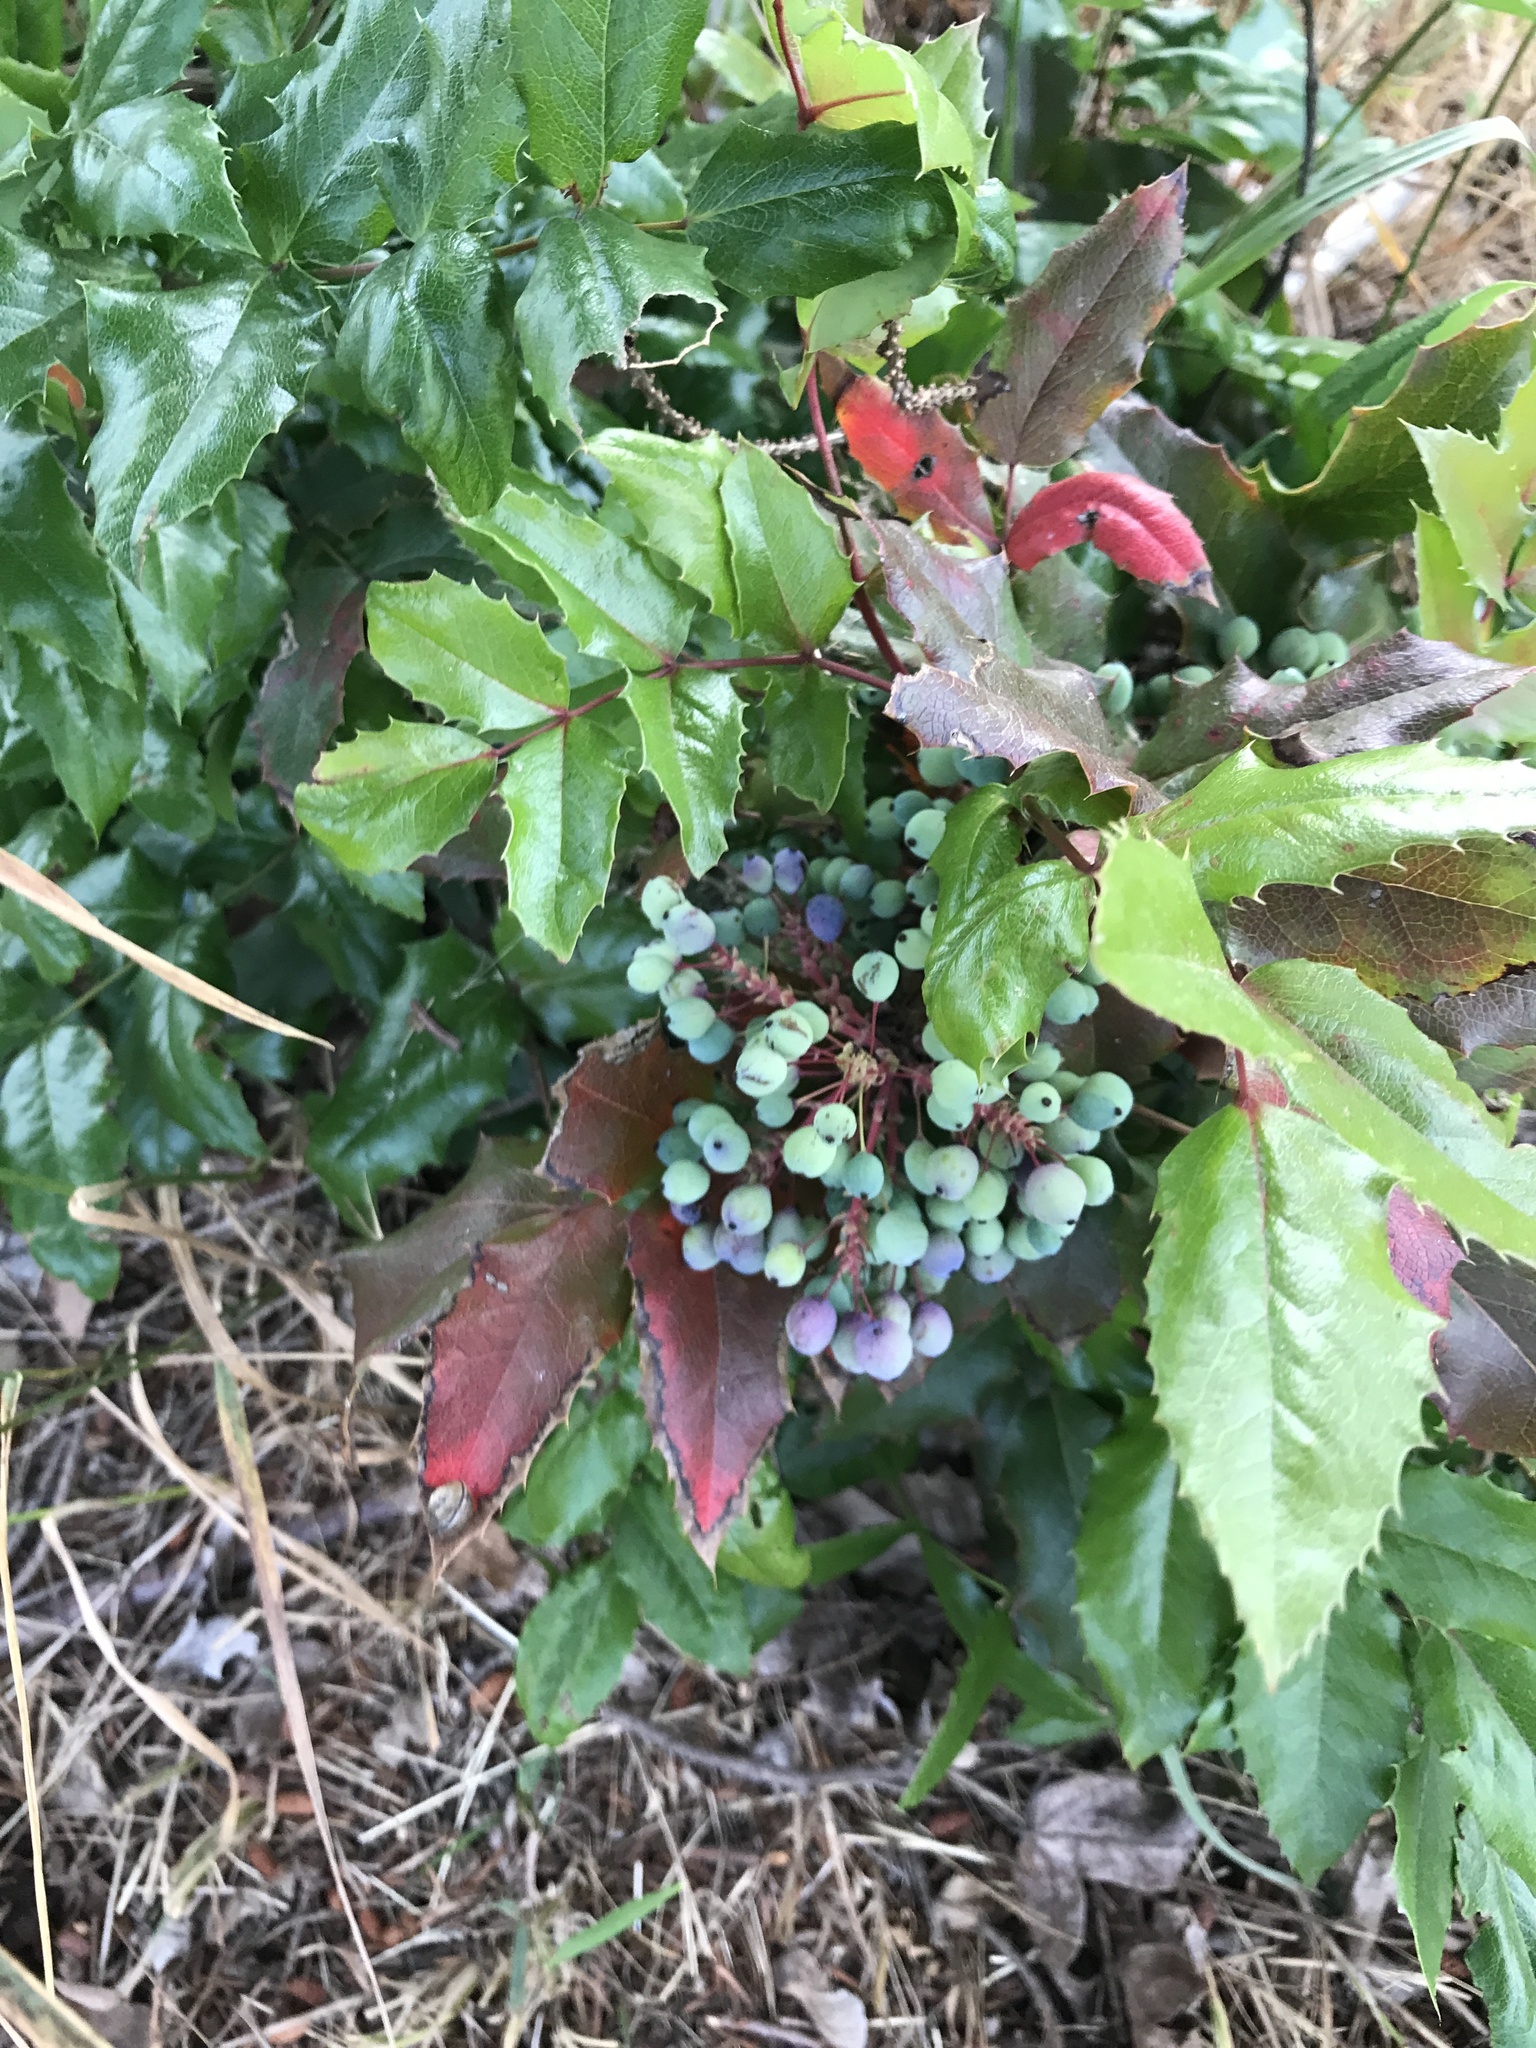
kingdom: Plantae
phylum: Tracheophyta
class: Magnoliopsida
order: Ranunculales
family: Berberidaceae
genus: Mahonia
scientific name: Mahonia aquifolium
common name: Oregon-grape
